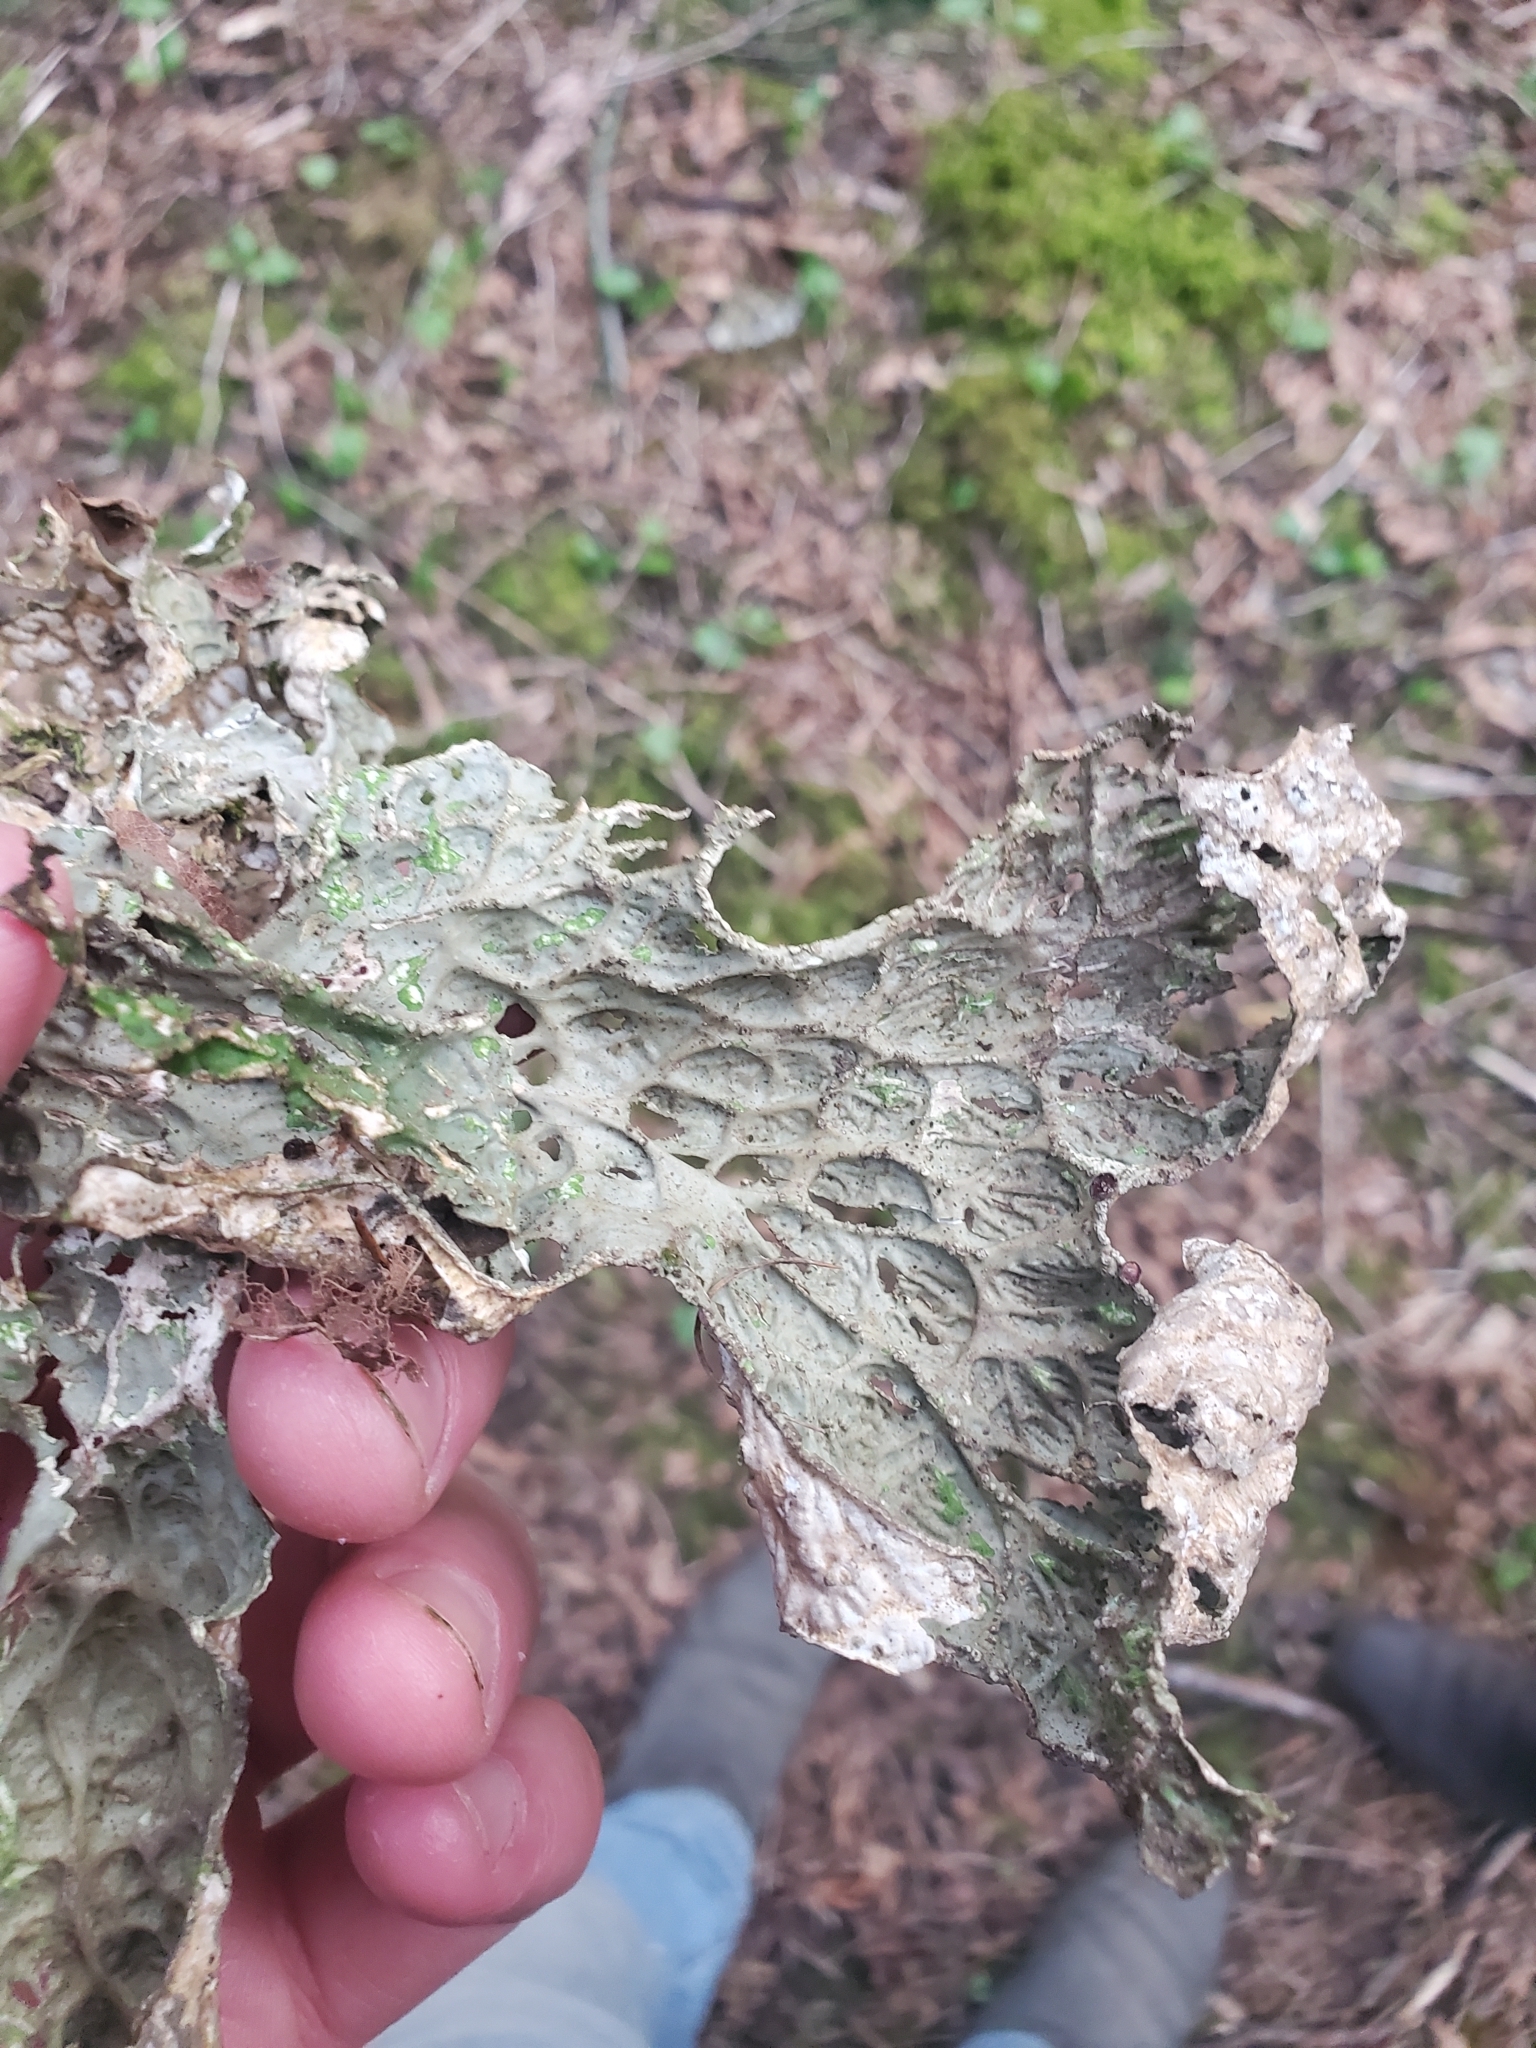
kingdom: Fungi
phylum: Ascomycota
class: Lecanoromycetes
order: Peltigerales
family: Lobariaceae
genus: Lobaria
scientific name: Lobaria pulmonaria
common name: Lungwort
